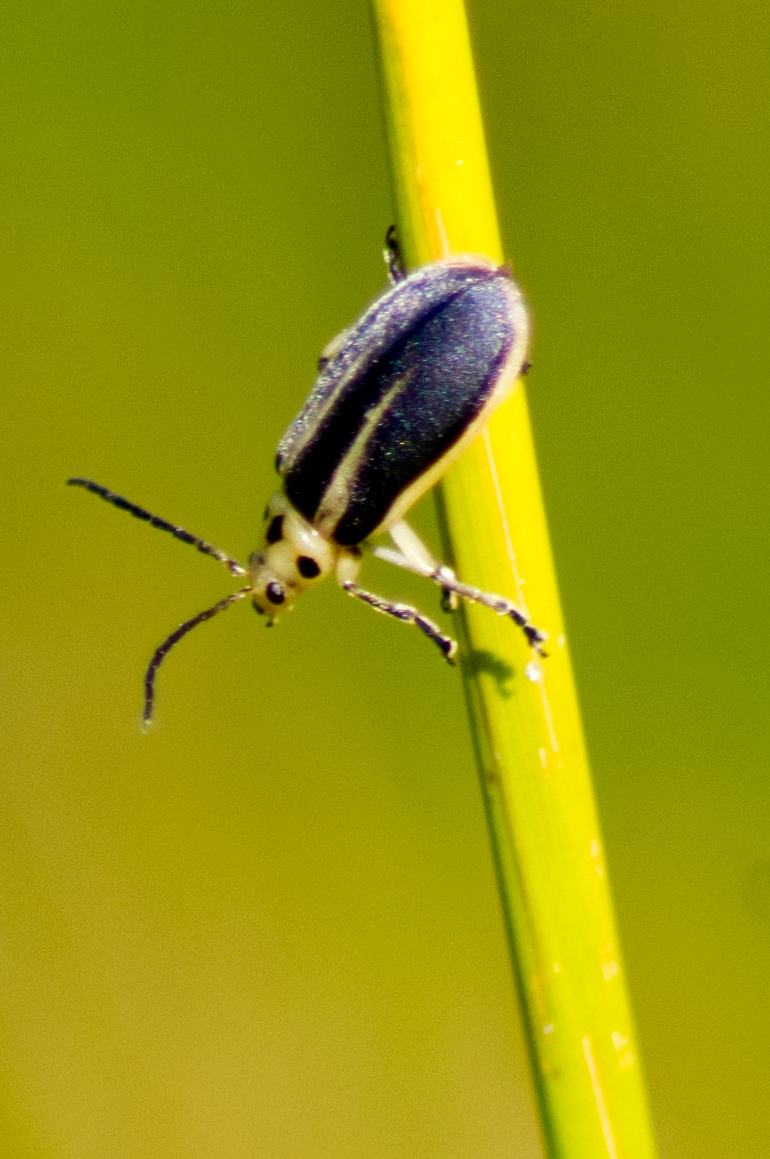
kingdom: Animalia
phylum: Arthropoda
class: Insecta
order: Coleoptera
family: Chrysomelidae
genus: Trirhabda
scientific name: Trirhabda bacharidis
